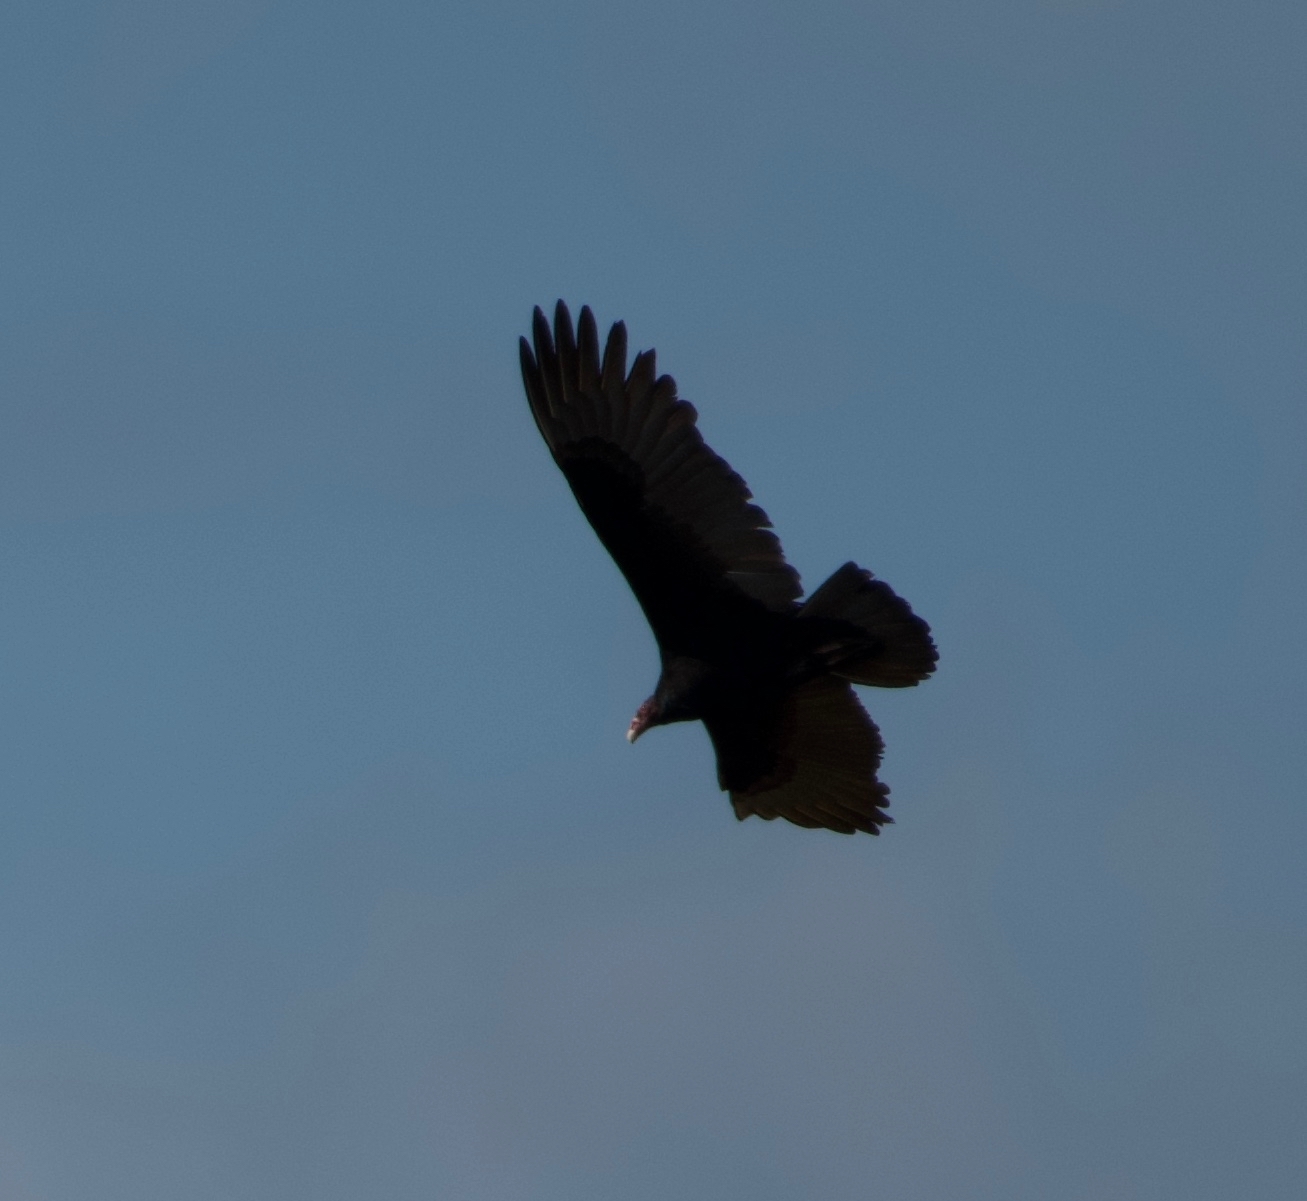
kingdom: Animalia
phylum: Chordata
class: Aves
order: Accipitriformes
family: Cathartidae
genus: Cathartes
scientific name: Cathartes aura
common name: Turkey vulture
